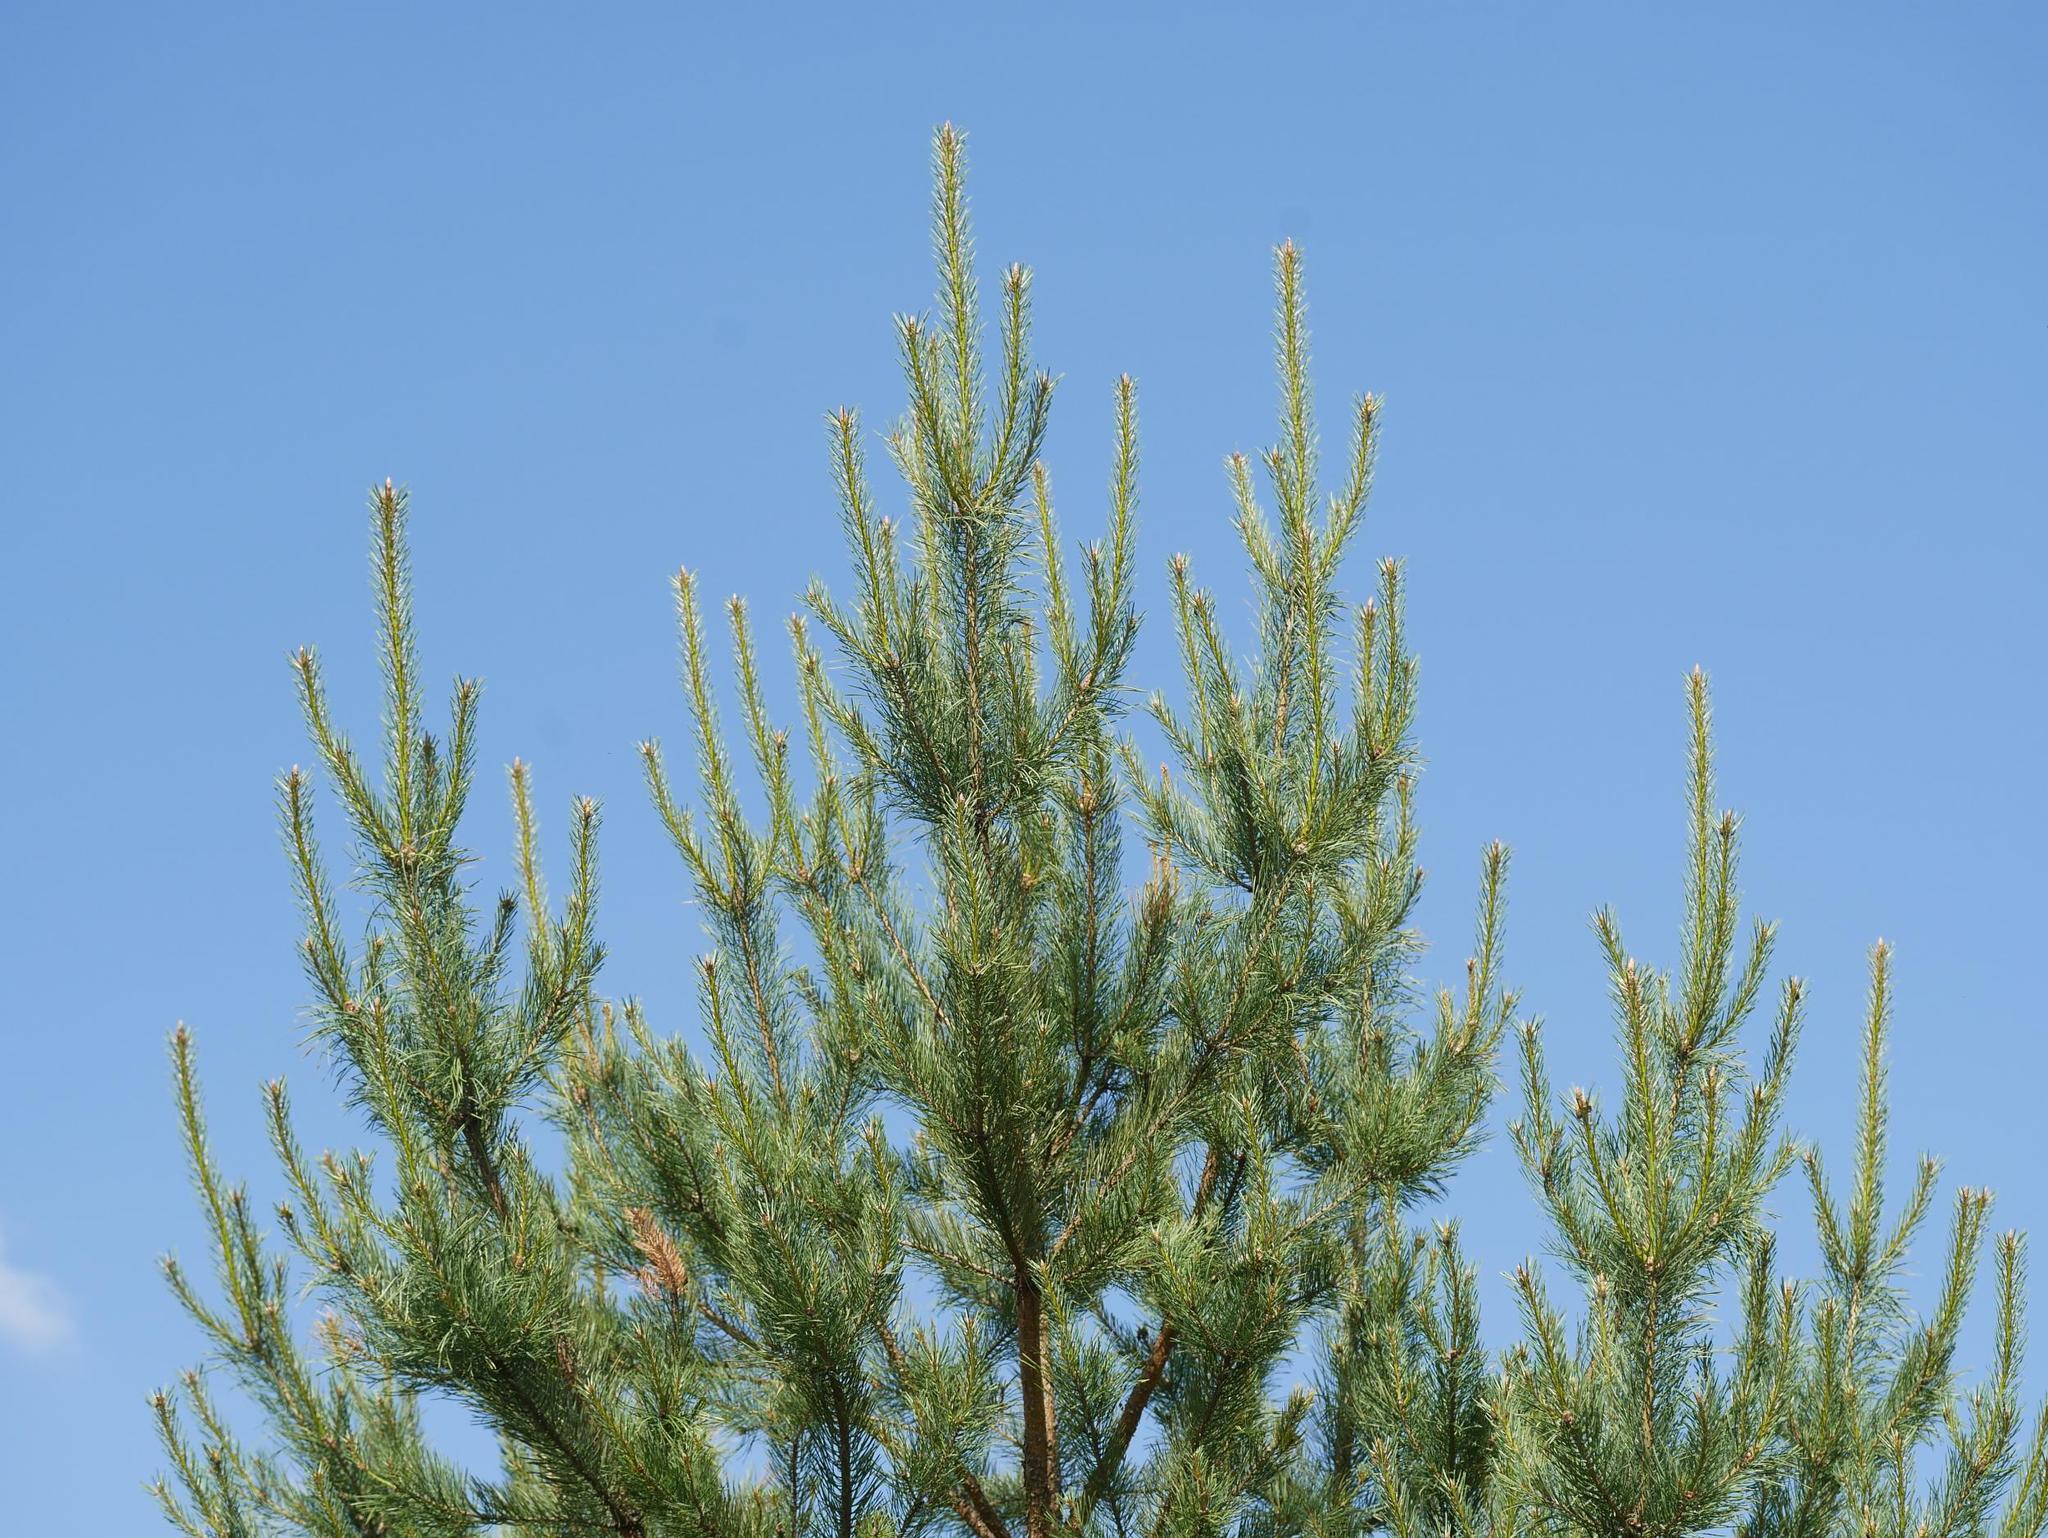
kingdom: Plantae
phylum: Tracheophyta
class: Pinopsida
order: Pinales
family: Pinaceae
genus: Pinus
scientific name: Pinus sylvestris
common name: Scots pine
